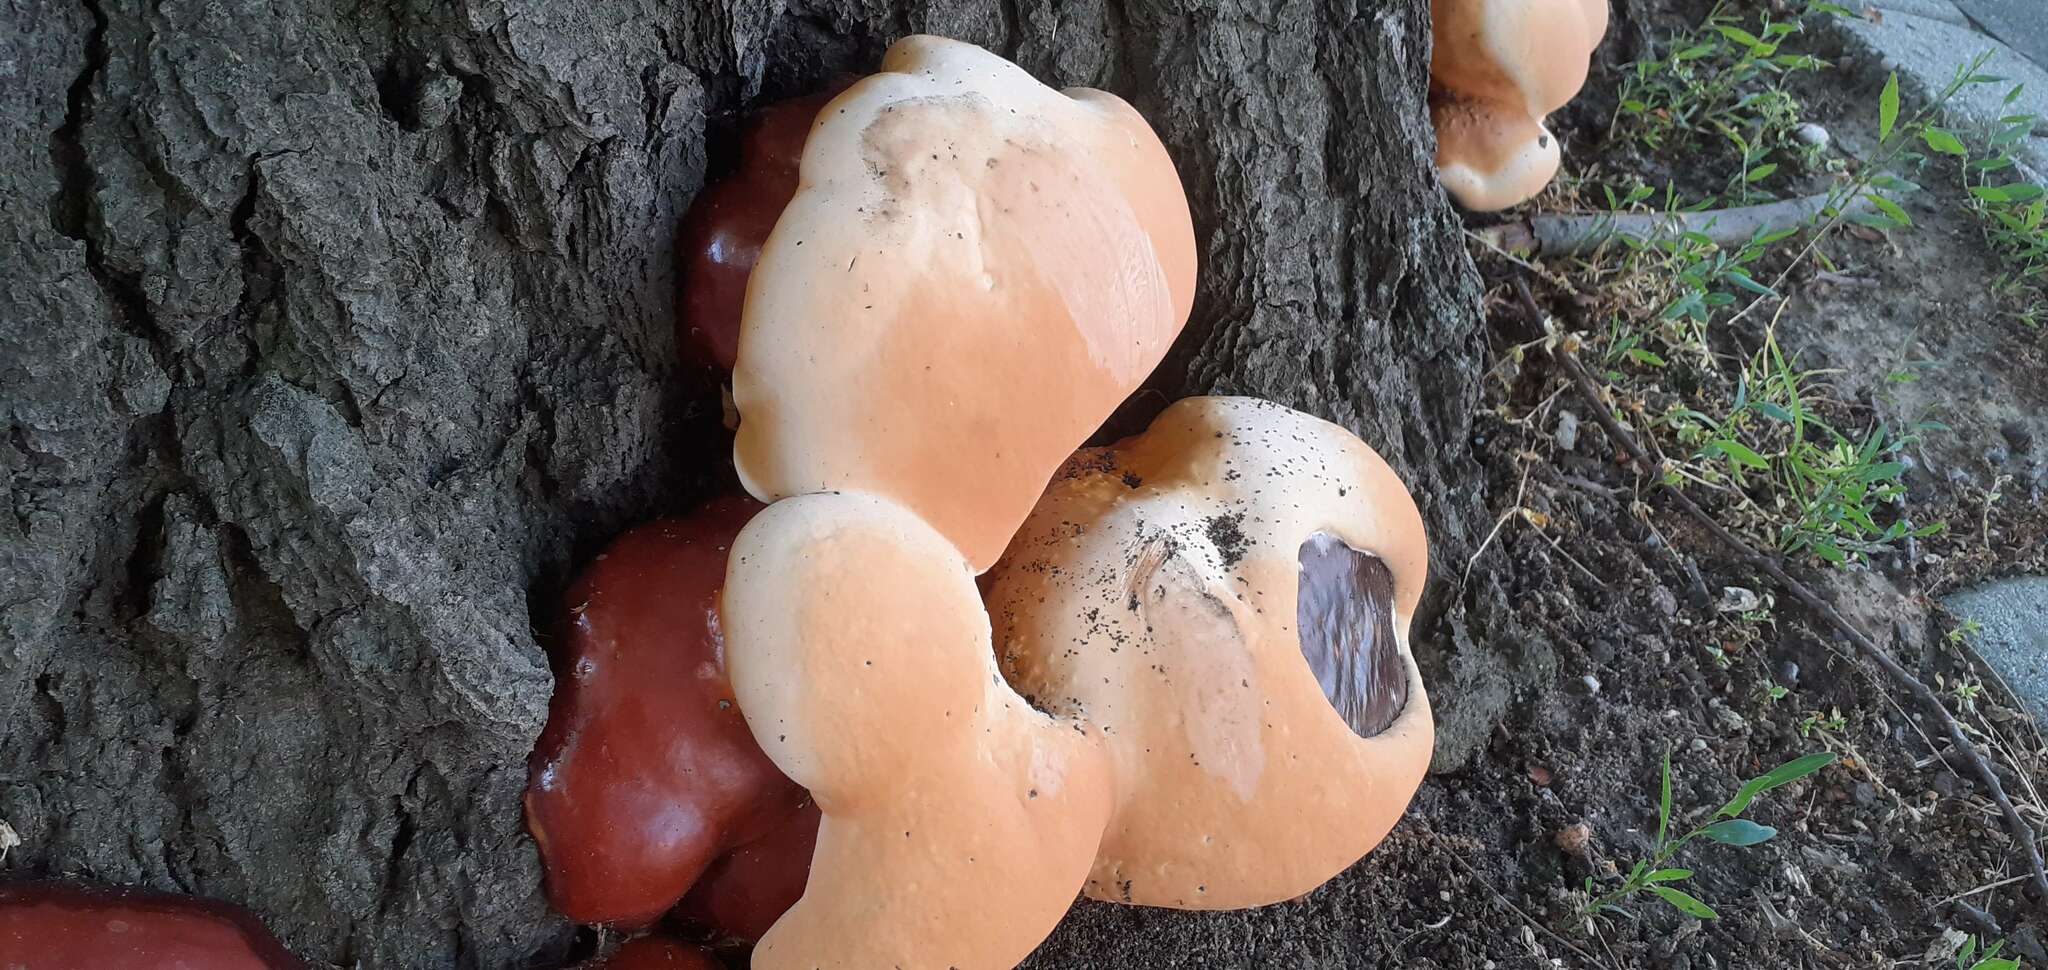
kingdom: Fungi
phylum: Basidiomycota
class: Agaricomycetes
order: Polyporales
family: Polyporaceae
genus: Ganoderma
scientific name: Ganoderma resinaceum
